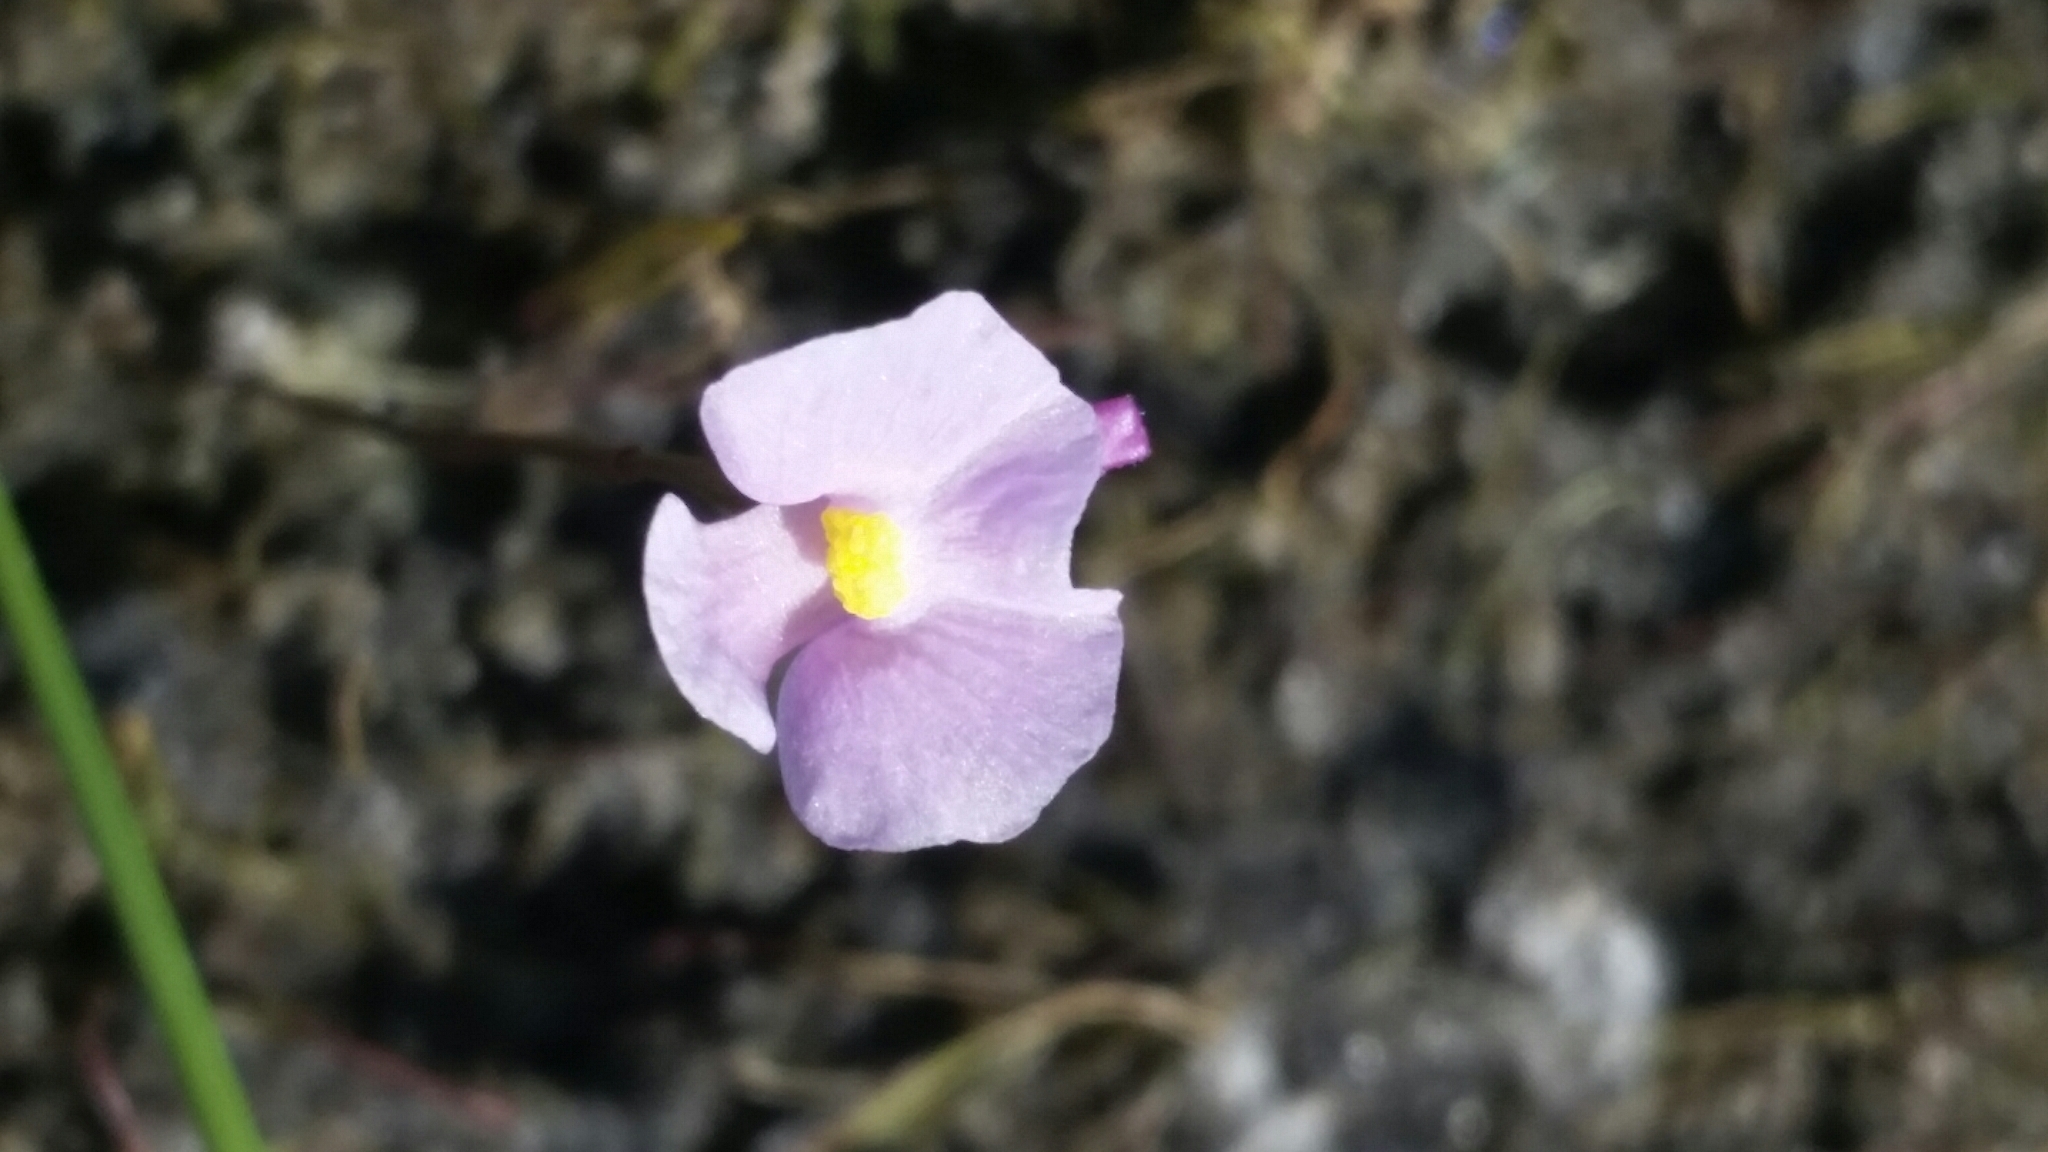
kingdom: Plantae
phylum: Tracheophyta
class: Magnoliopsida
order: Lamiales
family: Lentibulariaceae
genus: Utricularia
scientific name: Utricularia resupinata
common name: Northeastern bladderwort
